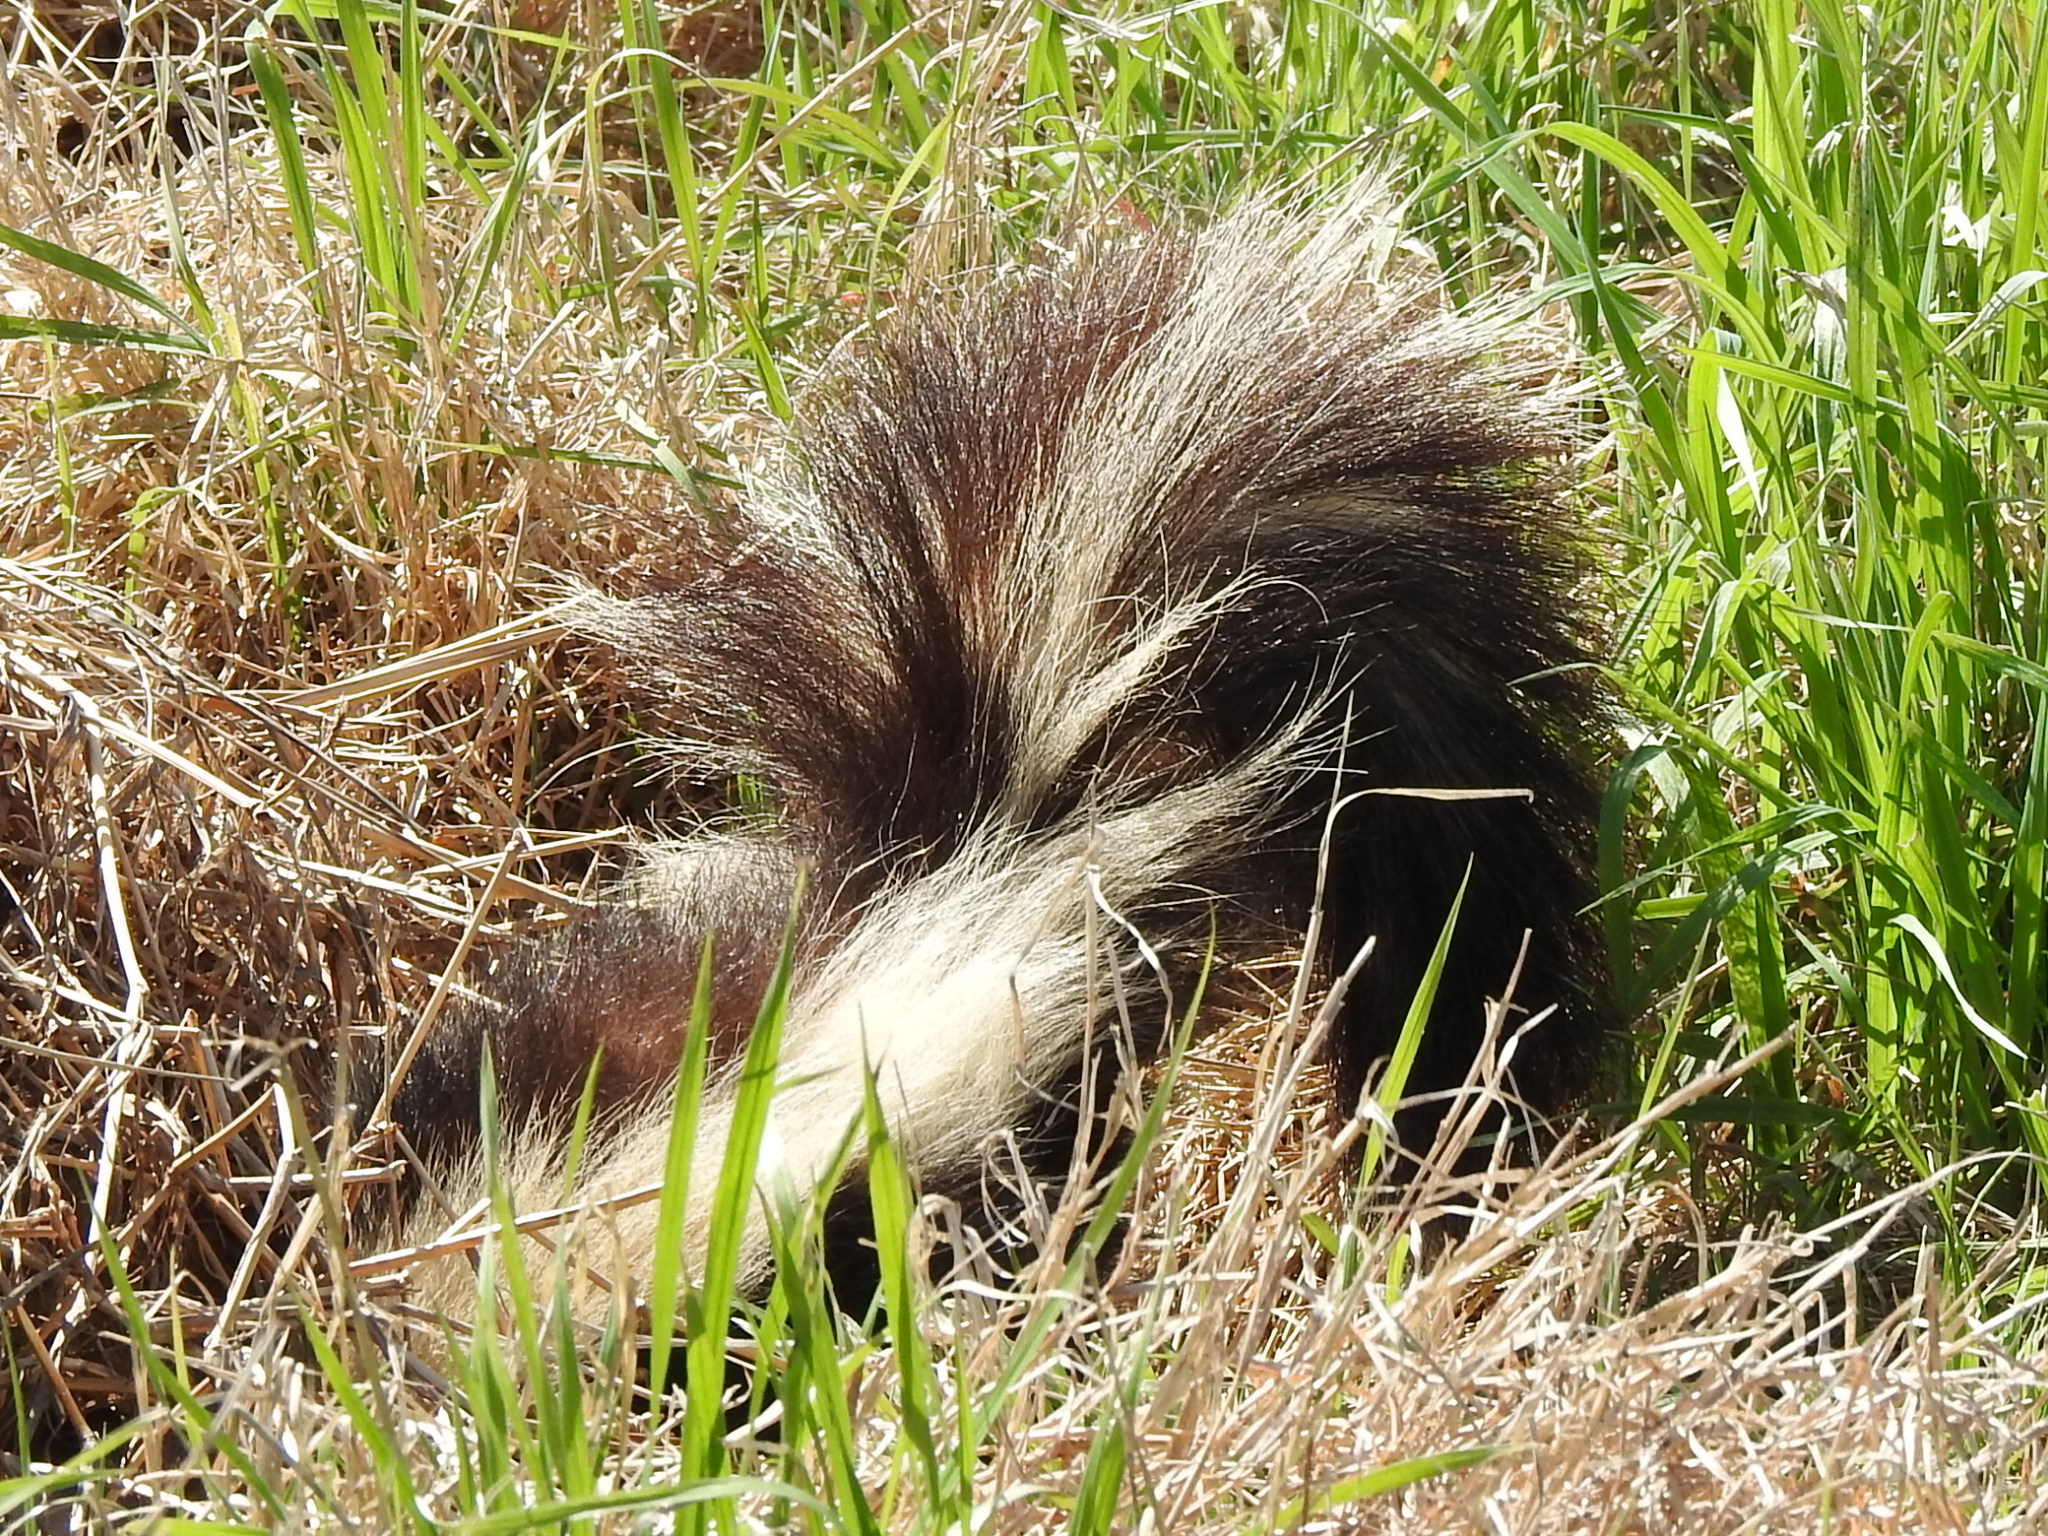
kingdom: Animalia
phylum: Chordata
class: Mammalia
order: Carnivora
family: Mephitidae
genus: Mephitis
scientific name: Mephitis mephitis
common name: Striped skunk
